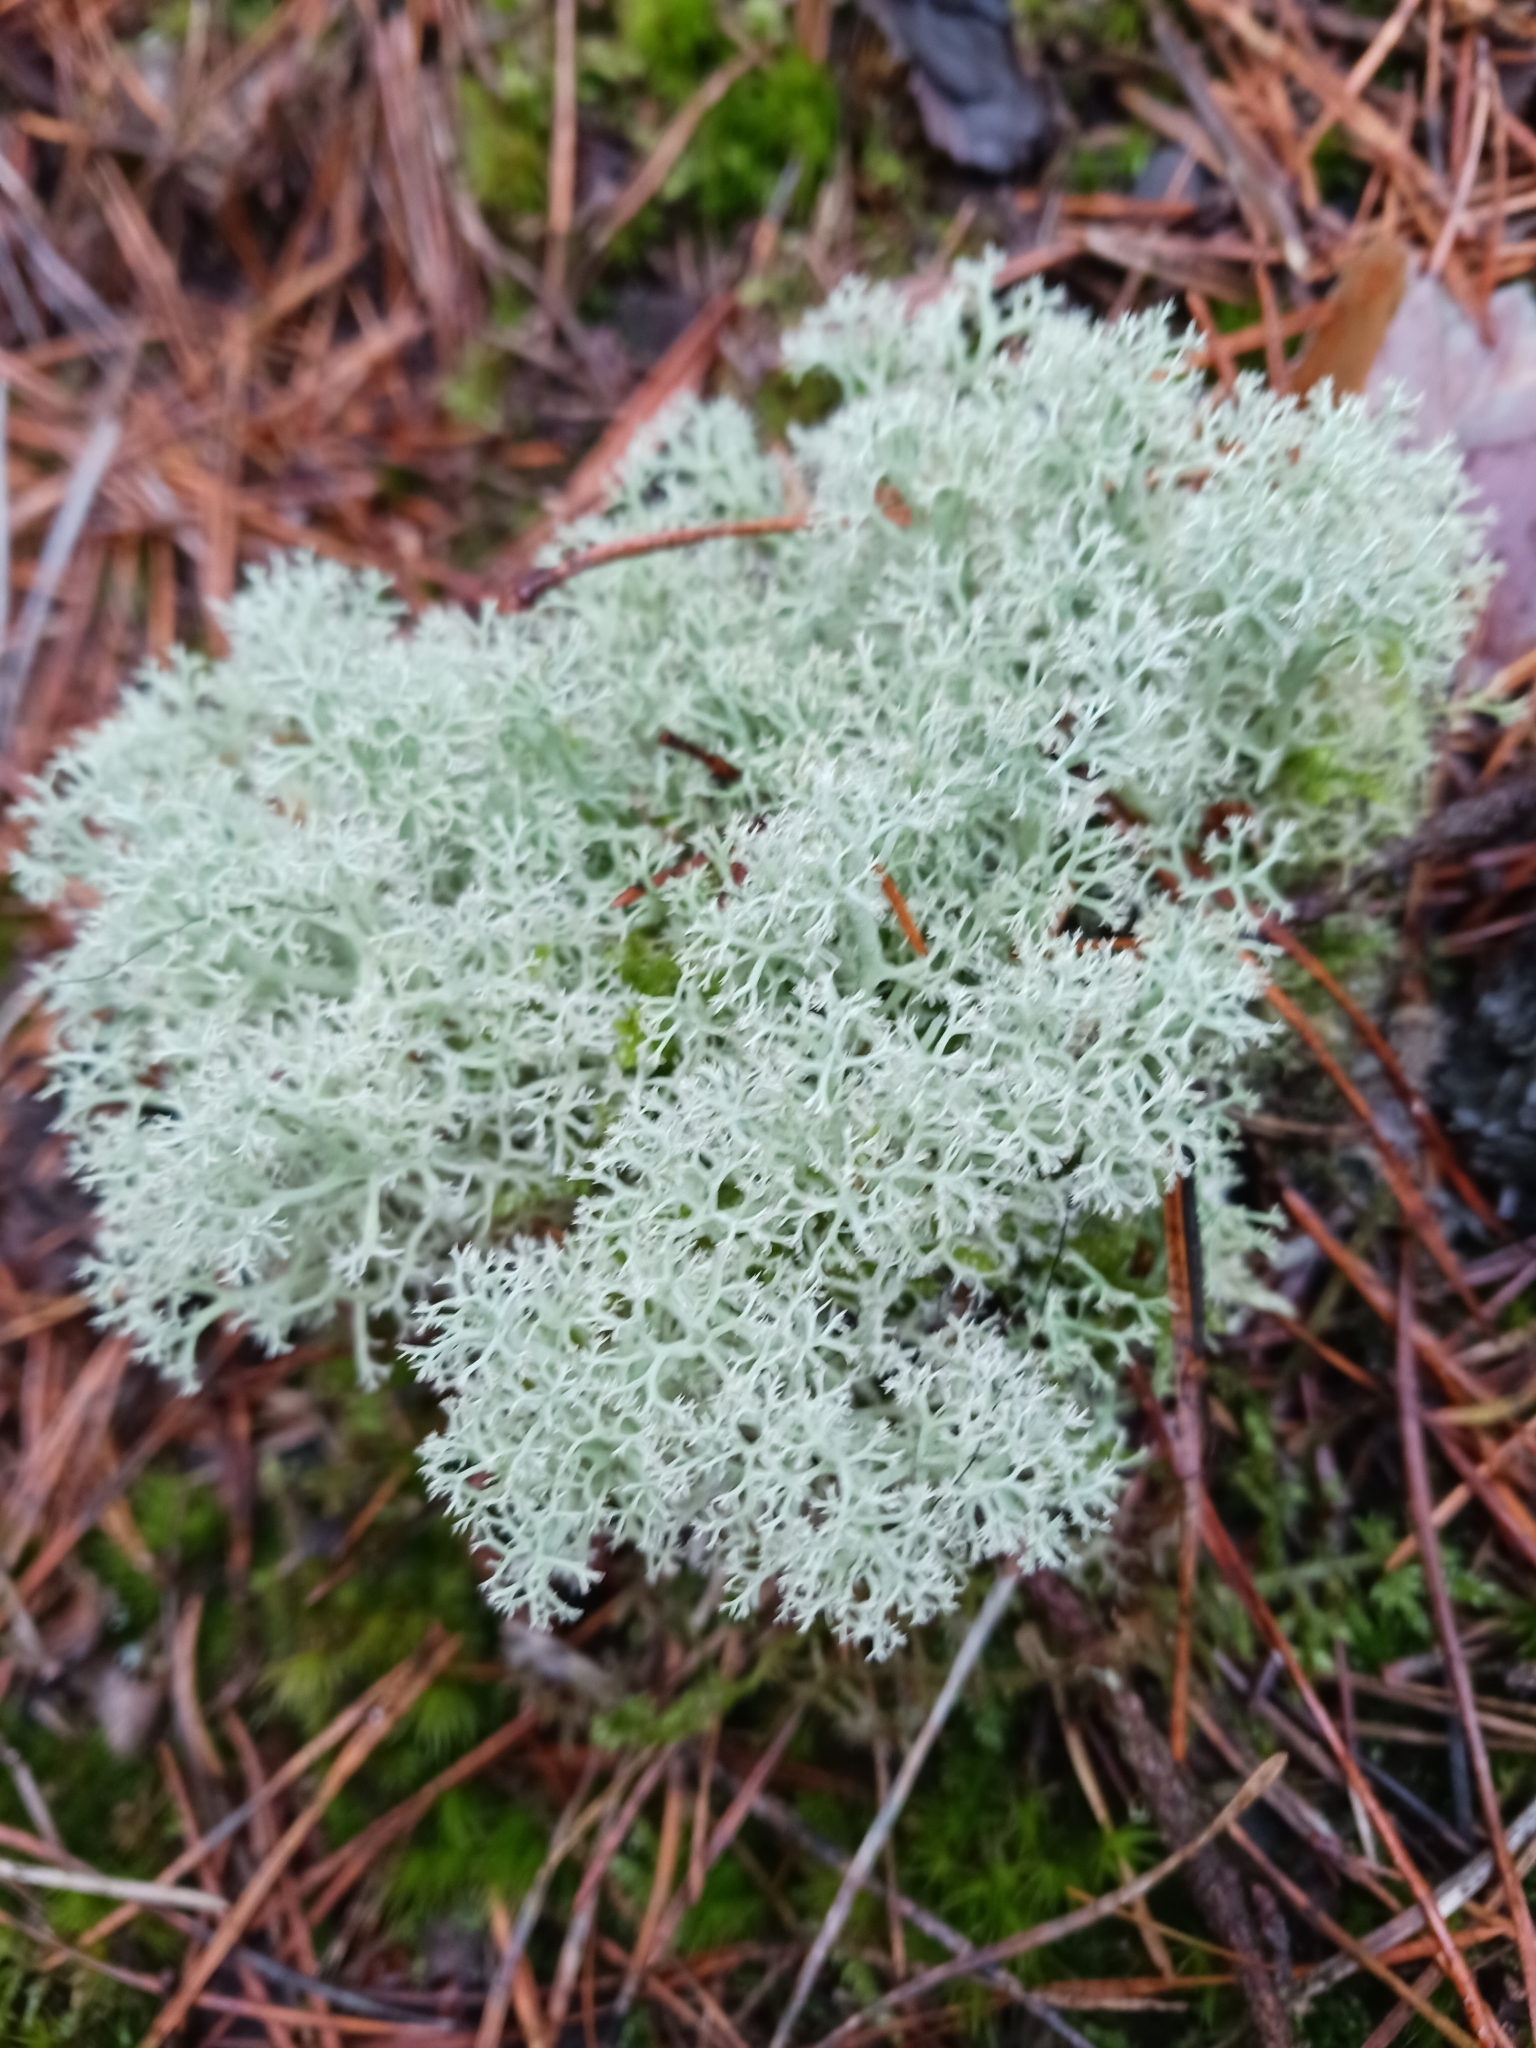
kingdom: Fungi
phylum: Ascomycota
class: Lecanoromycetes
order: Lecanorales
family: Cladoniaceae
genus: Cladonia
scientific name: Cladonia portentosa
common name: Reindeer lichen
